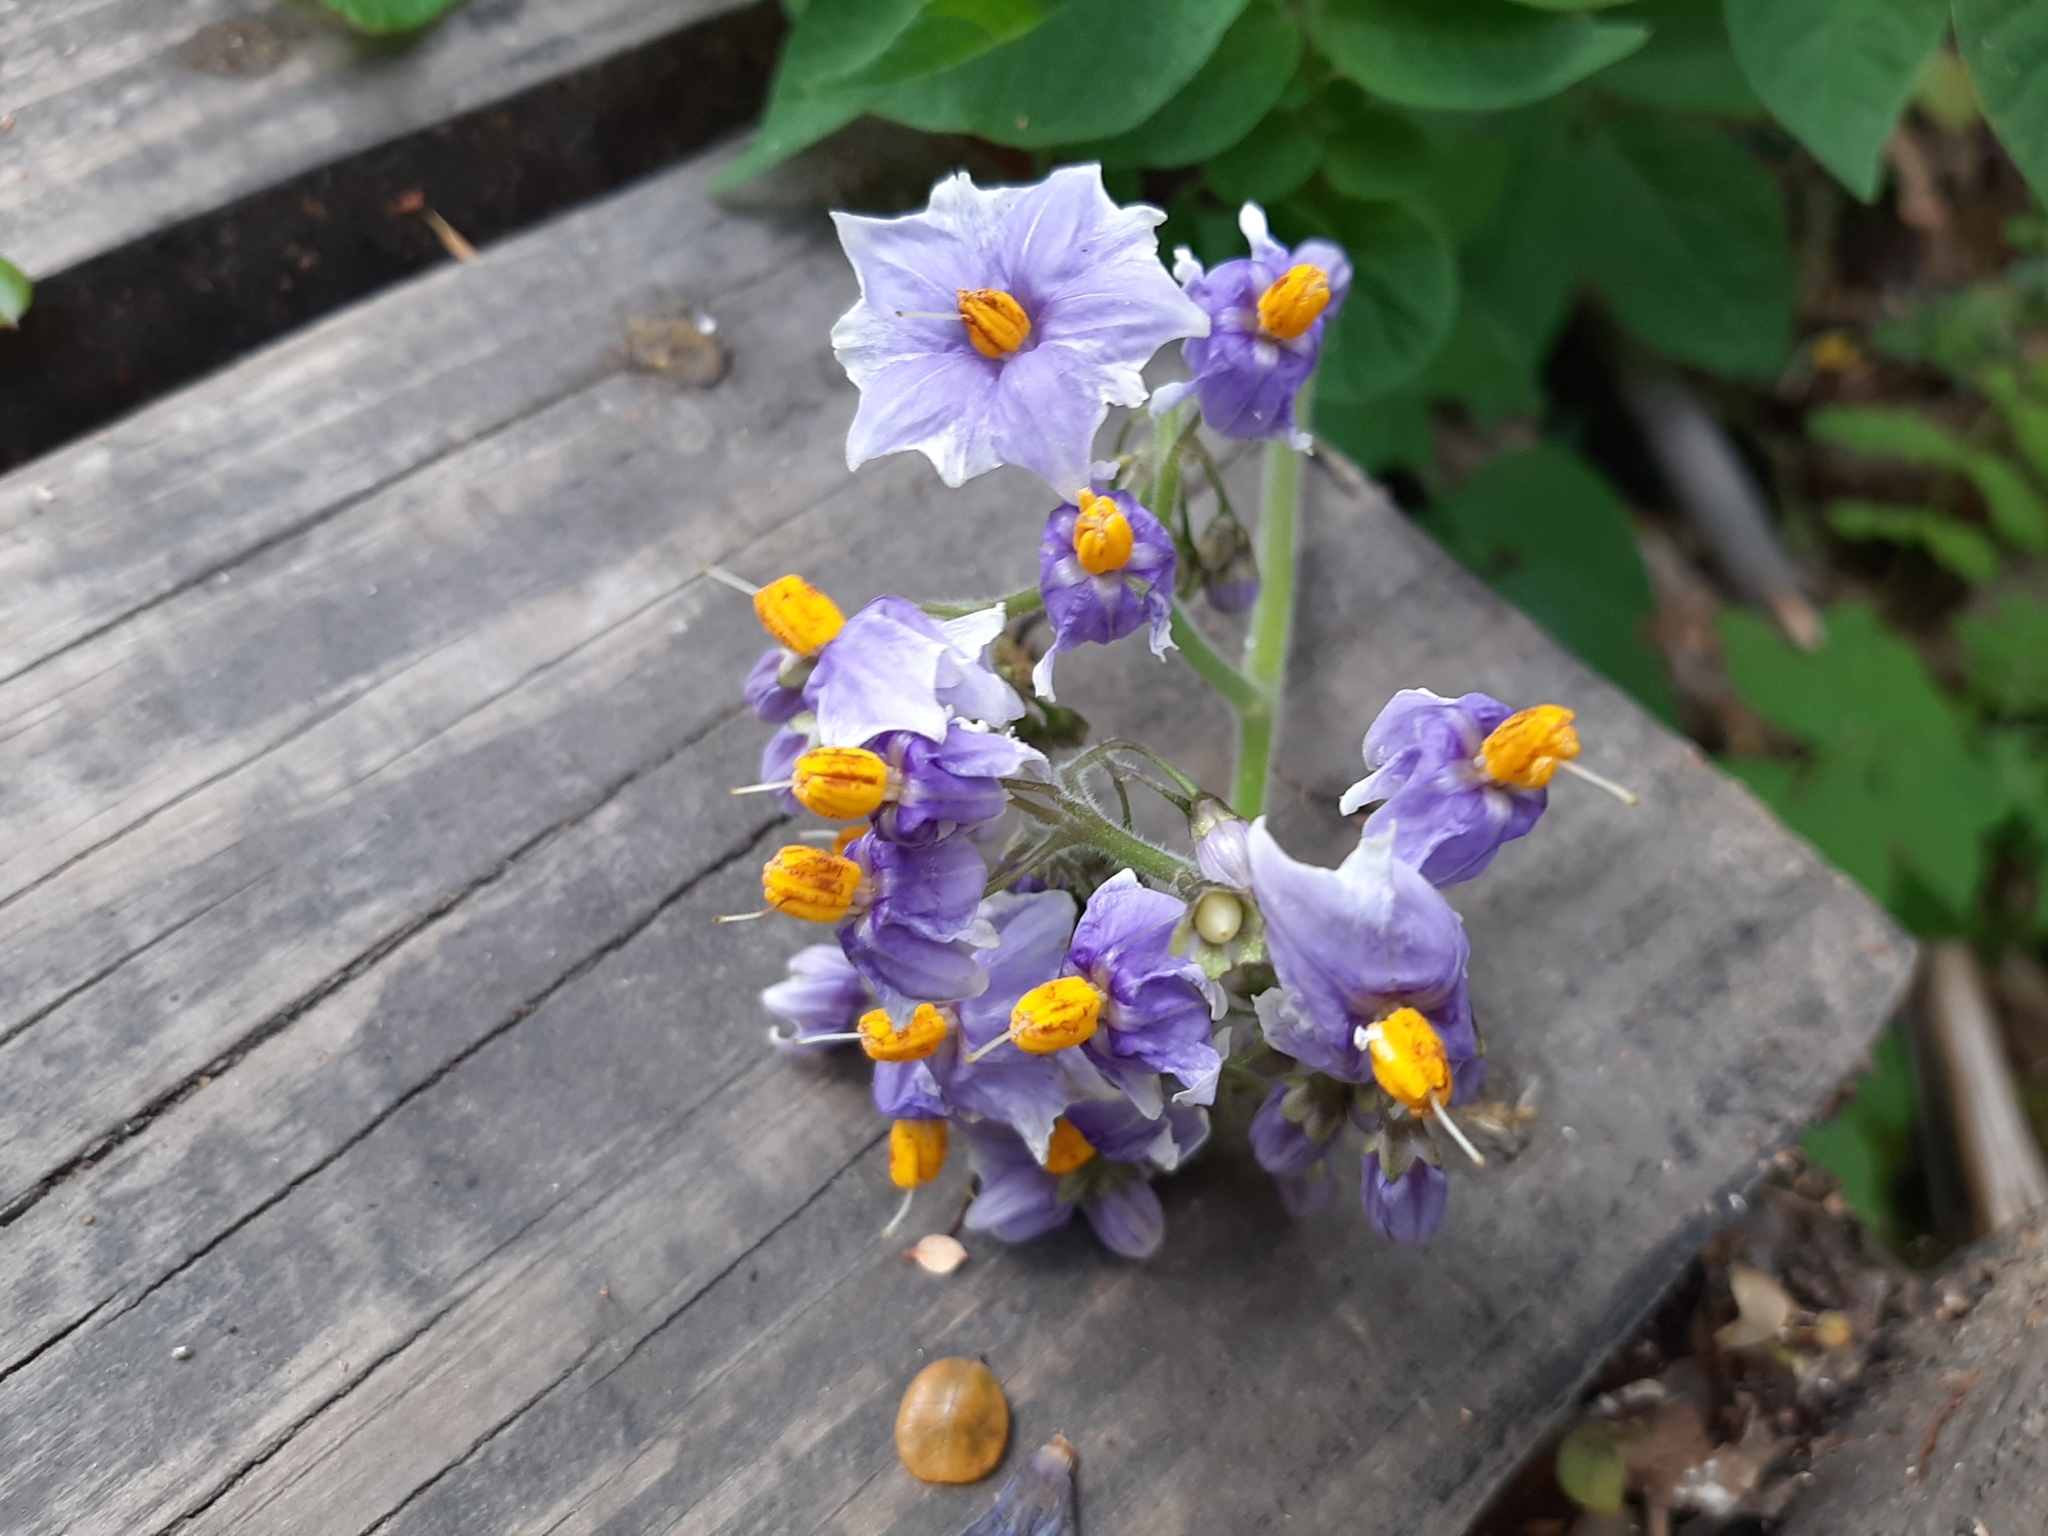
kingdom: Plantae
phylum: Tracheophyta
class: Magnoliopsida
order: Solanales
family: Solanaceae
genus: Solanum
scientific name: Solanum palustre
